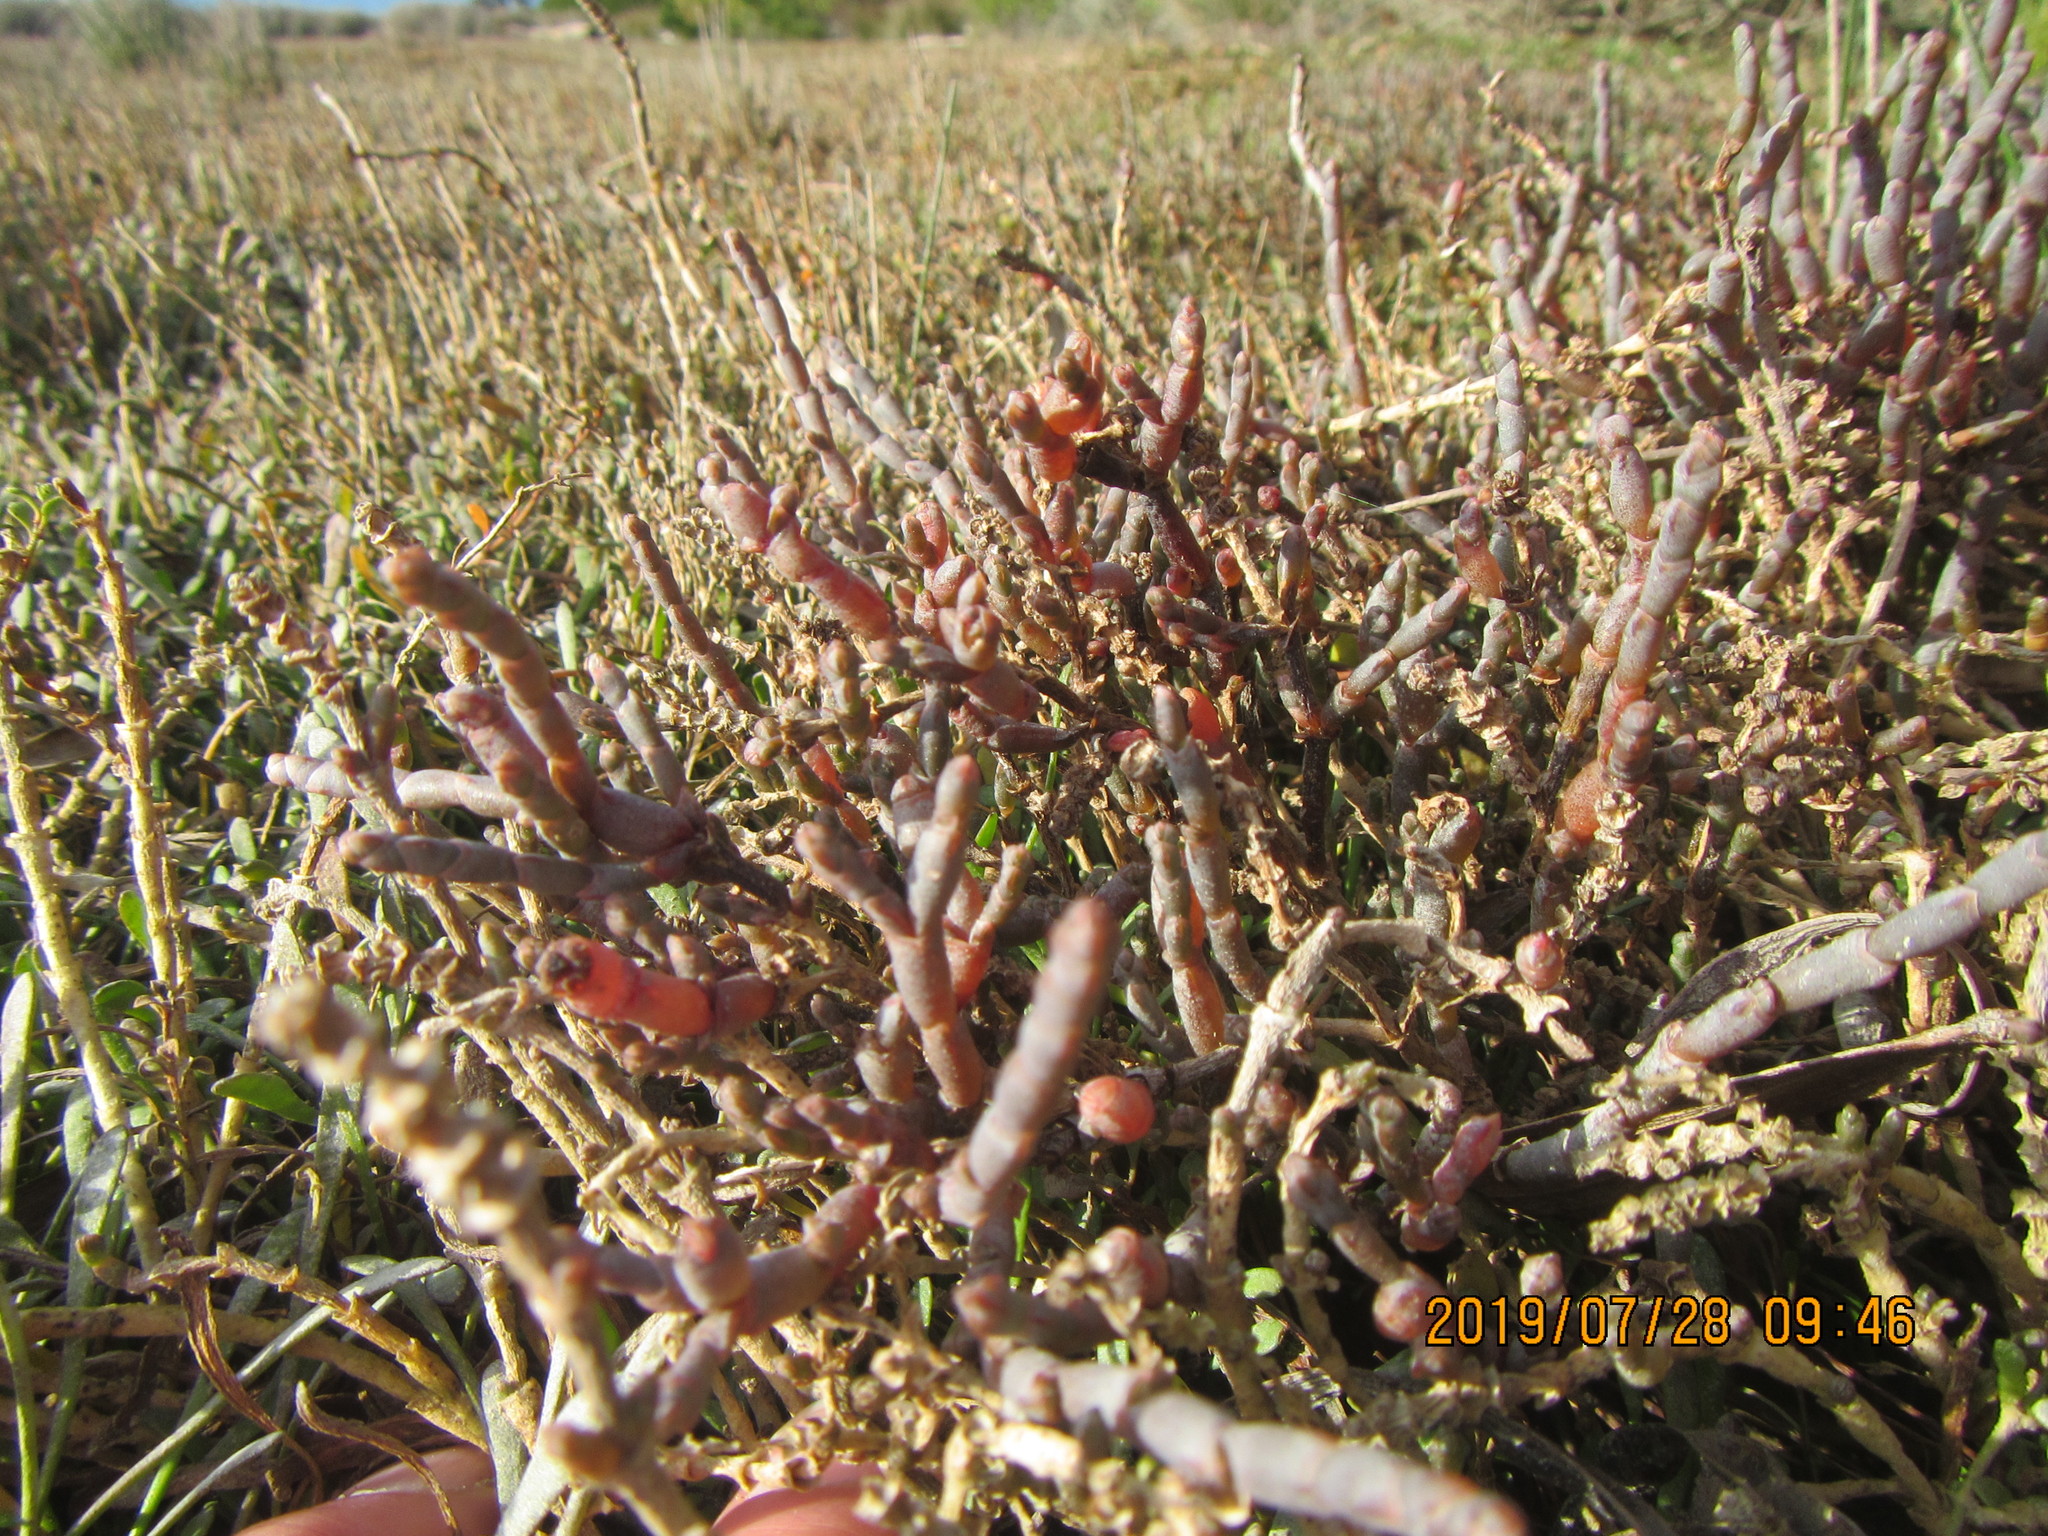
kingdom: Plantae
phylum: Tracheophyta
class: Magnoliopsida
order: Caryophyllales
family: Amaranthaceae
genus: Salicornia
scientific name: Salicornia quinqueflora
